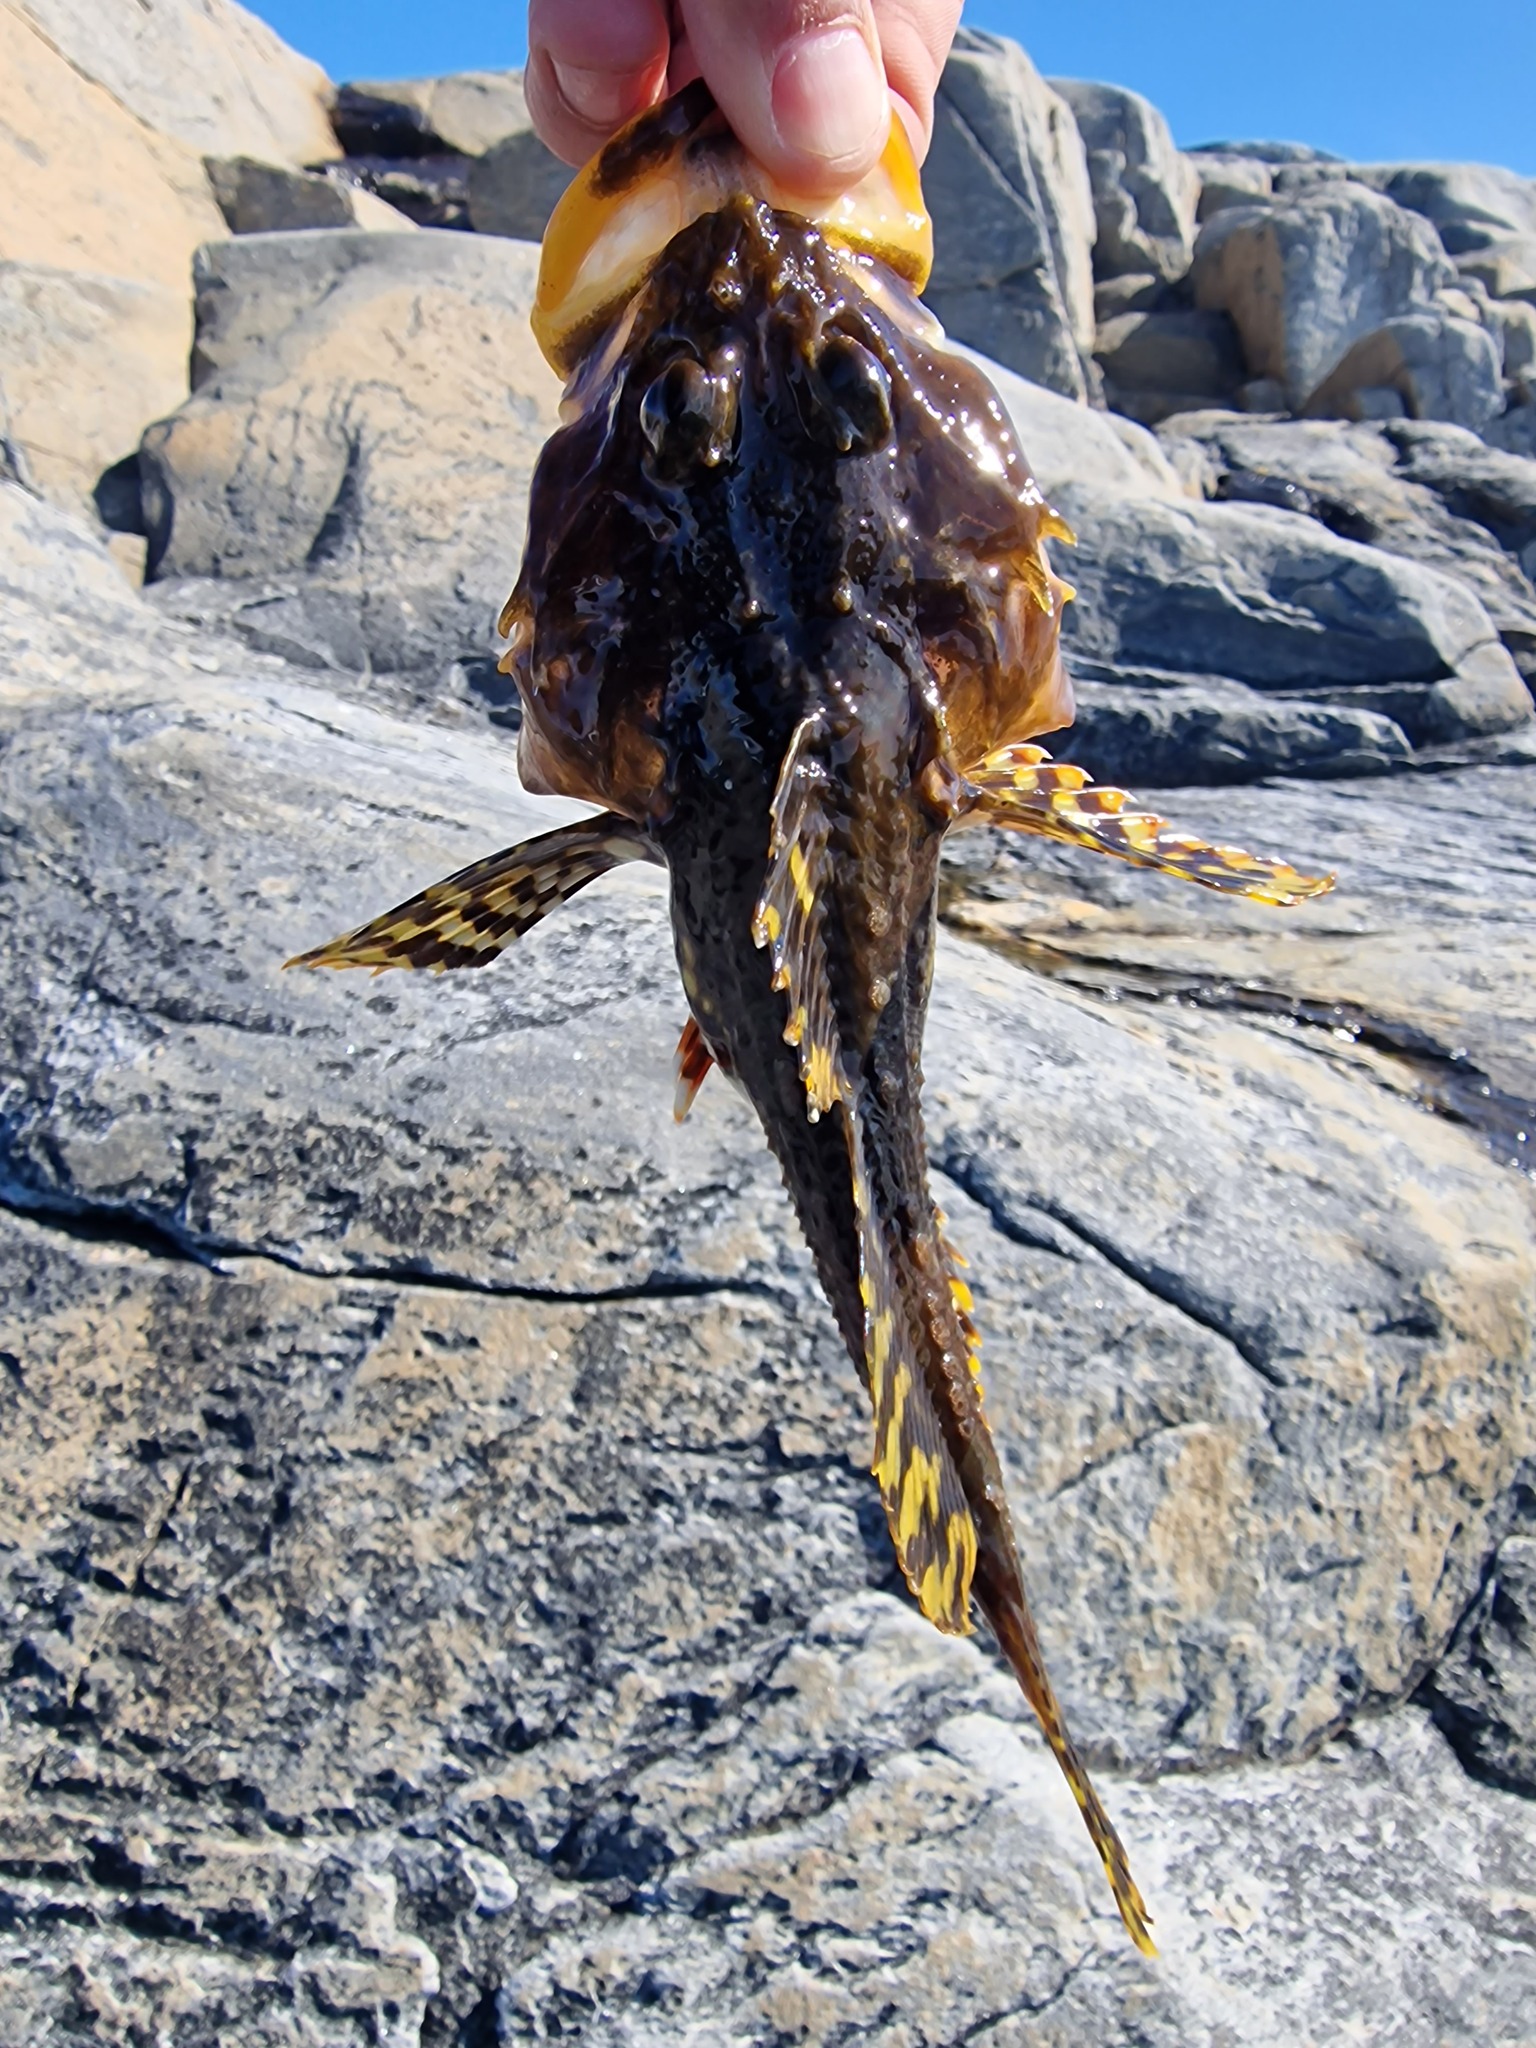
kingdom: Animalia
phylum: Chordata
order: Scorpaeniformes
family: Cottidae
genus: Myoxocephalus
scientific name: Myoxocephalus scorpius
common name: Shorthorn sculpin
